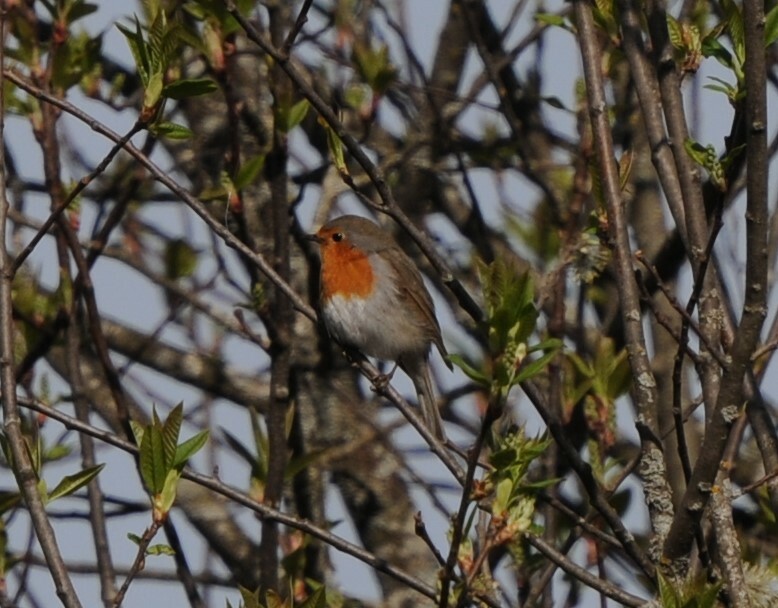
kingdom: Animalia
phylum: Chordata
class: Aves
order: Passeriformes
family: Muscicapidae
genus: Erithacus
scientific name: Erithacus rubecula
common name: European robin
